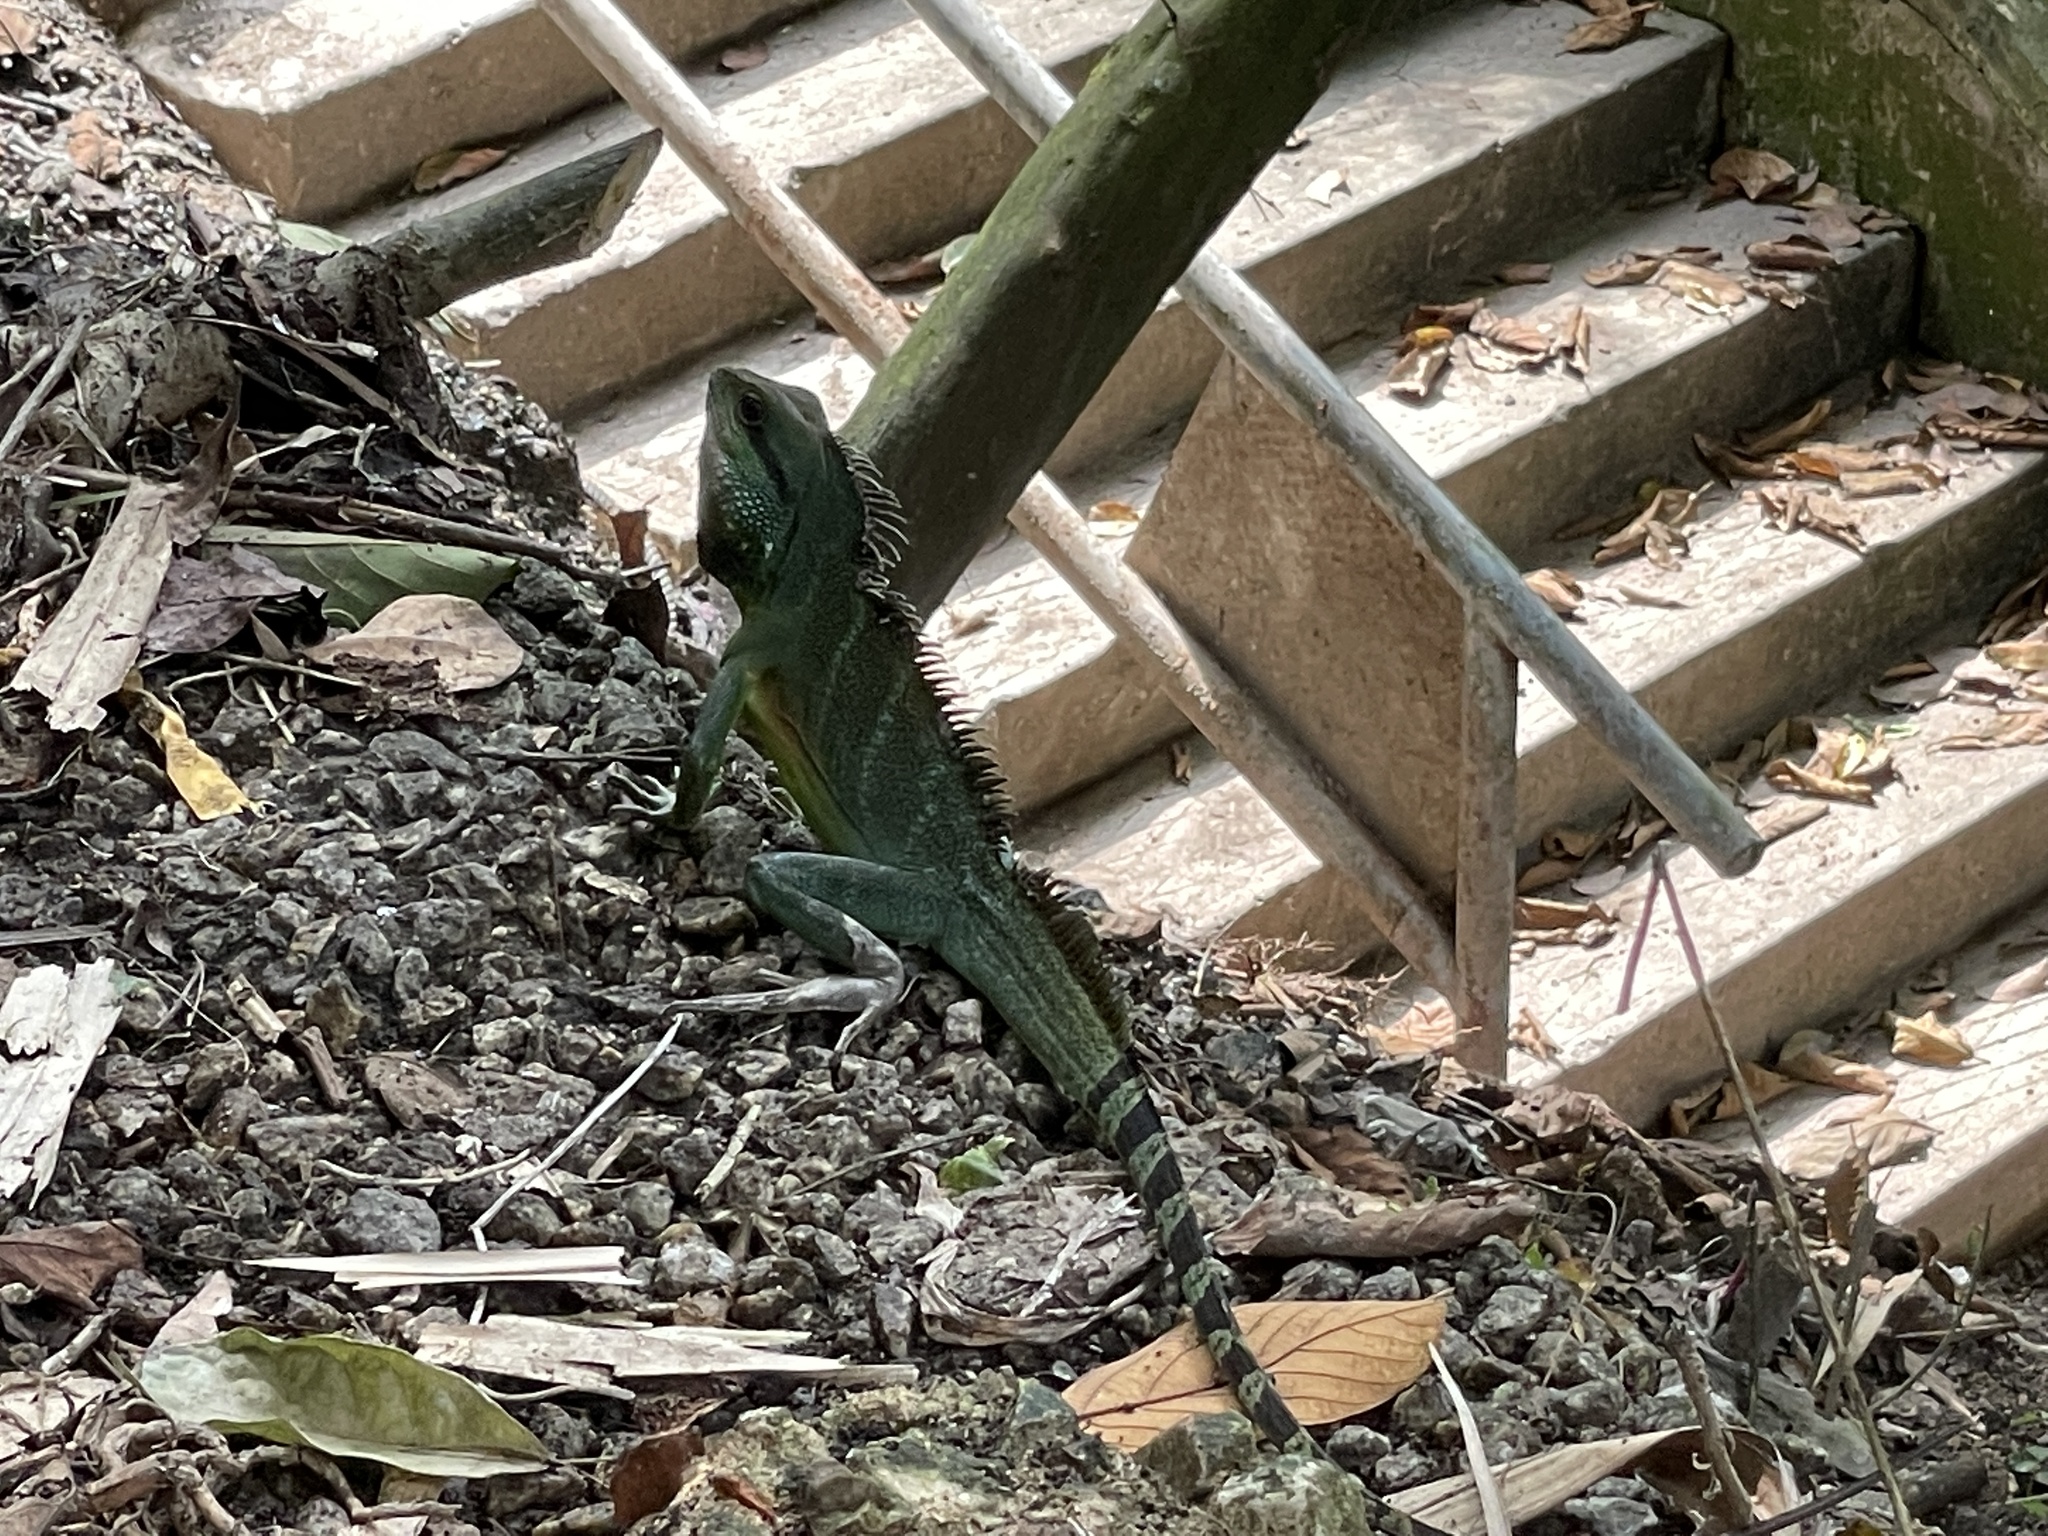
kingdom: Animalia
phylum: Chordata
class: Squamata
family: Agamidae
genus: Physignathus
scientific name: Physignathus cocincinus
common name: Asian water dragon
